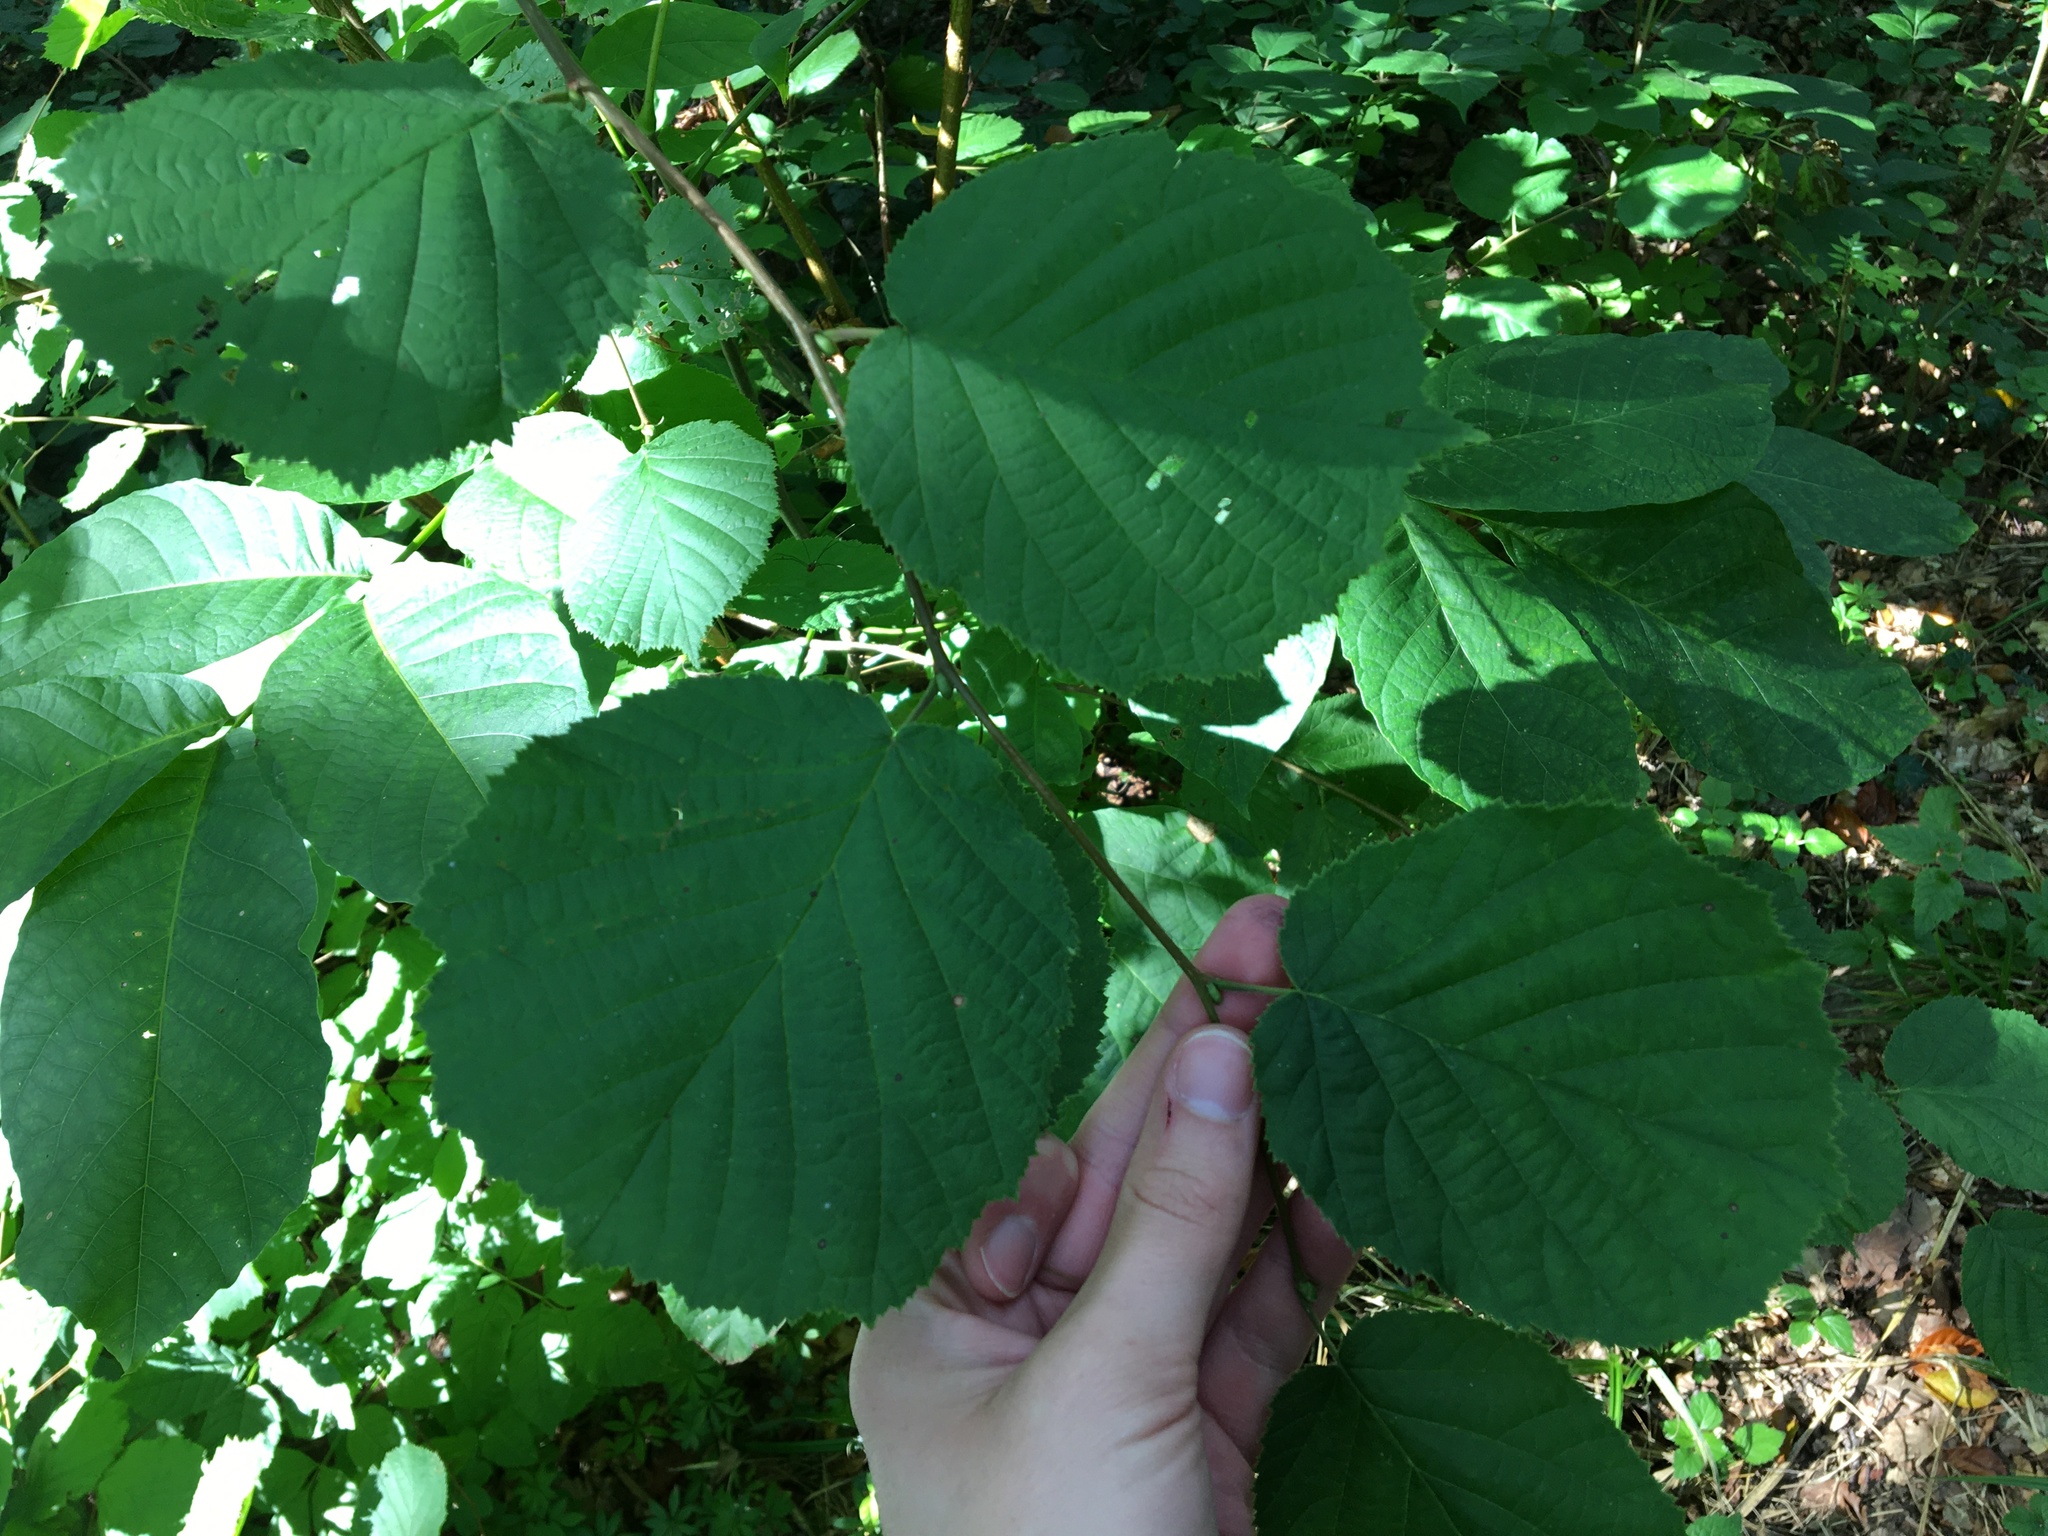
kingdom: Plantae
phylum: Tracheophyta
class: Magnoliopsida
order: Fagales
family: Betulaceae
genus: Corylus
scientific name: Corylus avellana
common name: European hazel
